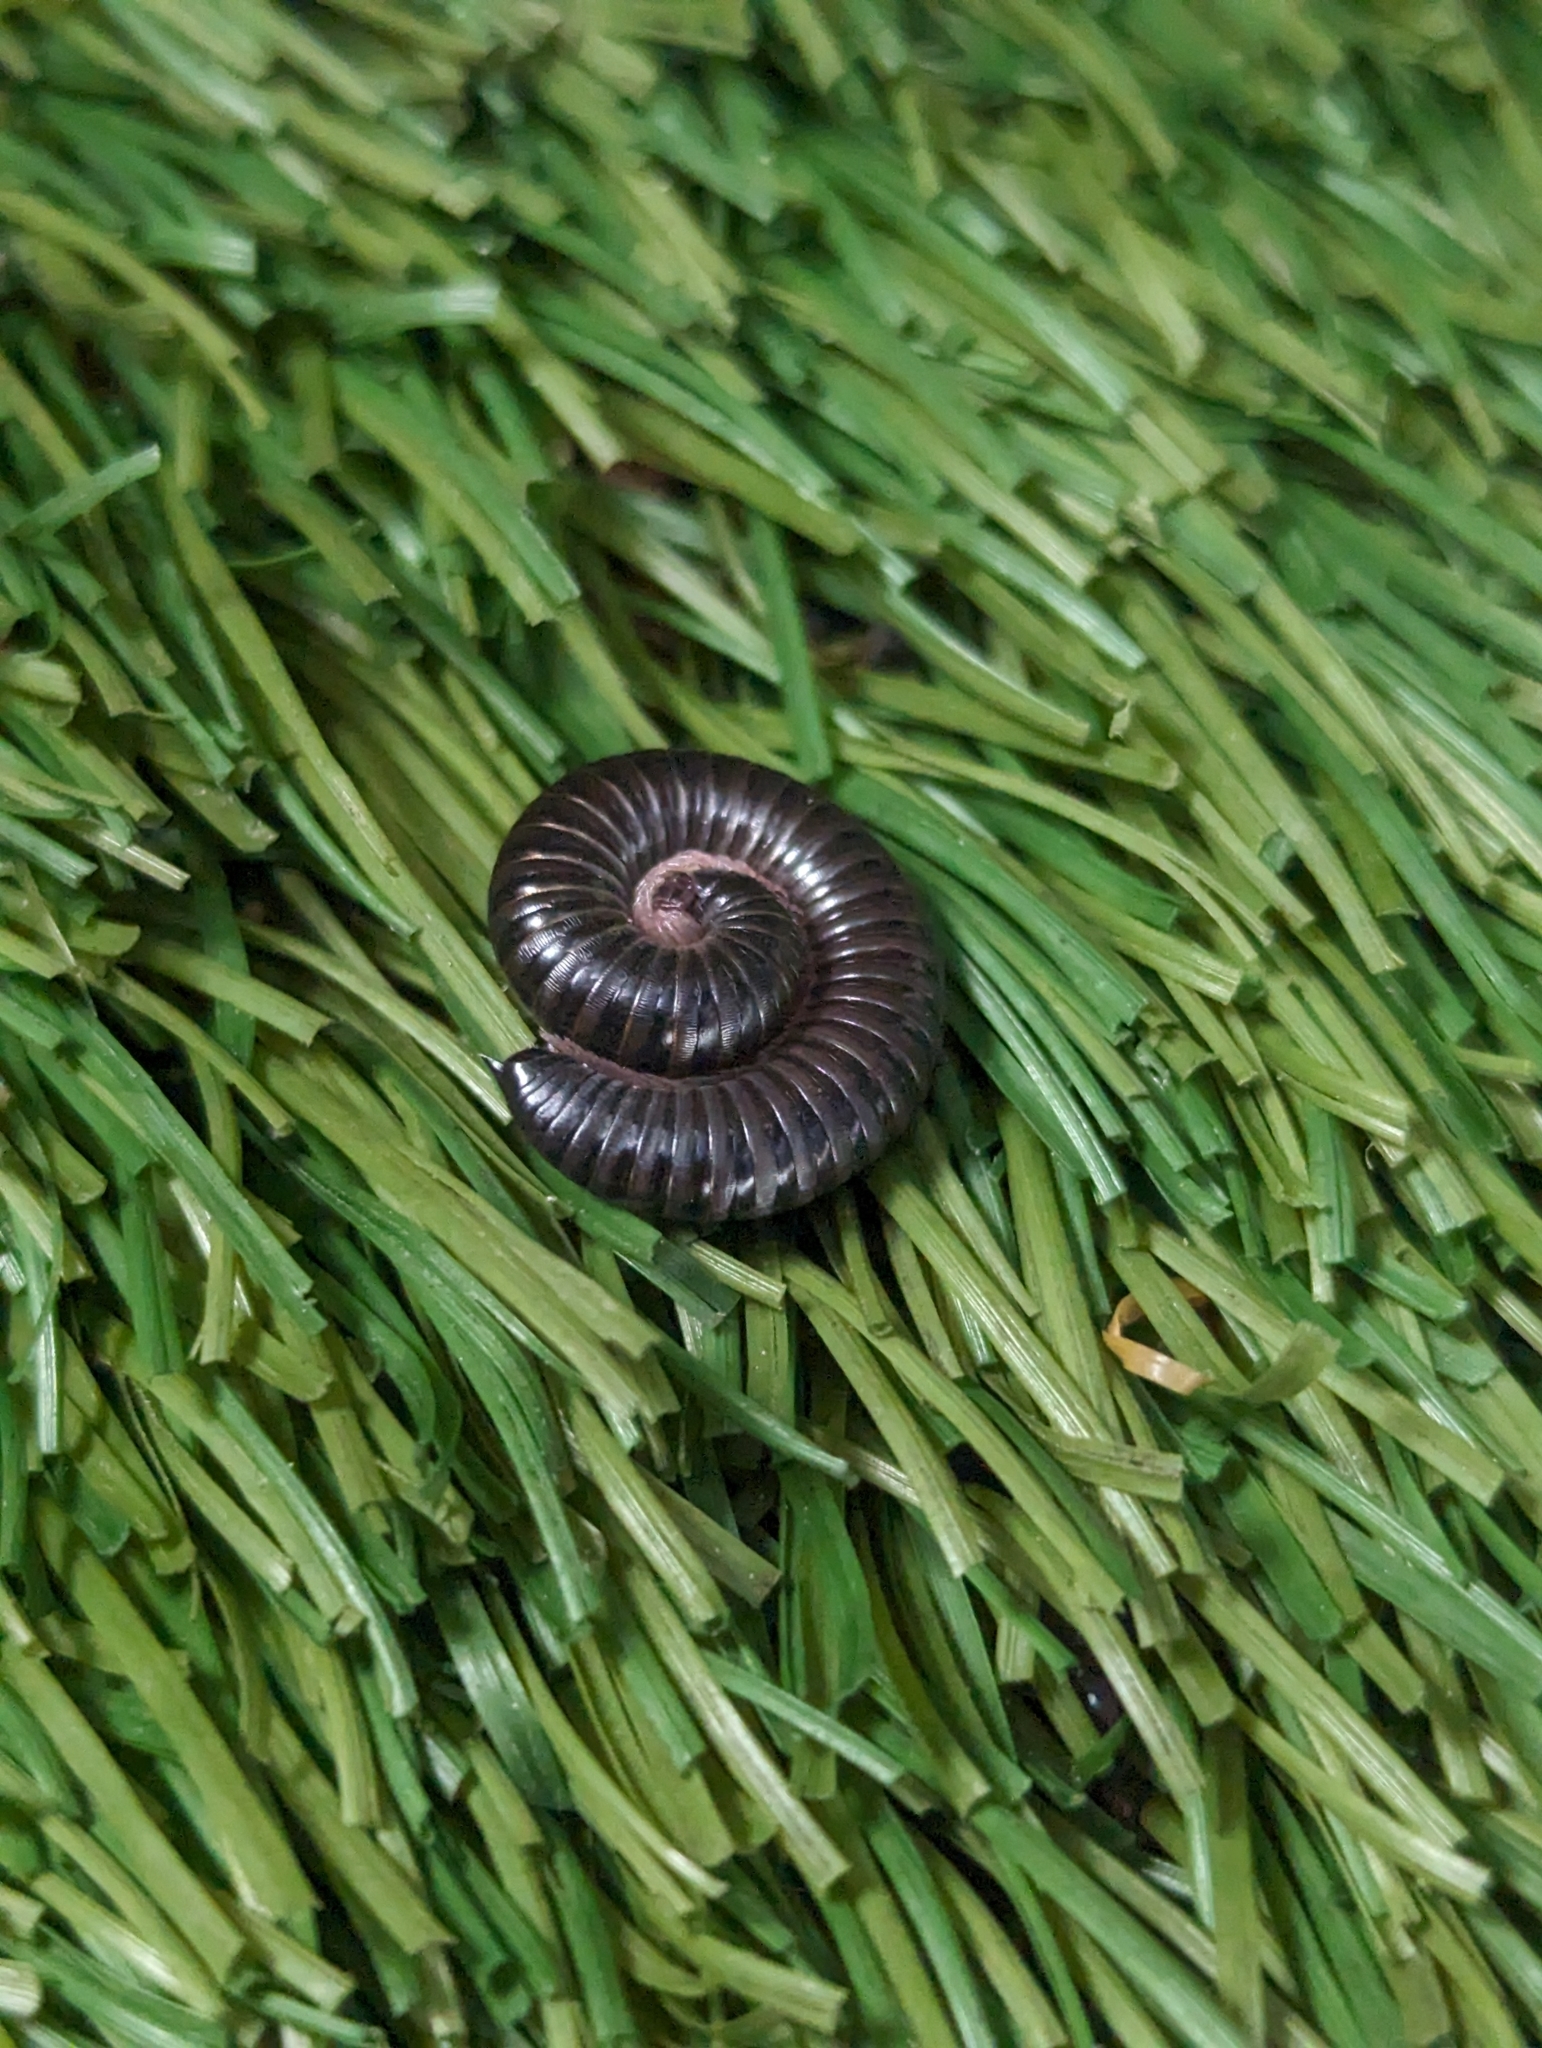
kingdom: Animalia
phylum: Arthropoda
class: Diplopoda
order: Julida
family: Julidae
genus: Ommatoiulus
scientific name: Ommatoiulus moreleti
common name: Portuguese millipede
